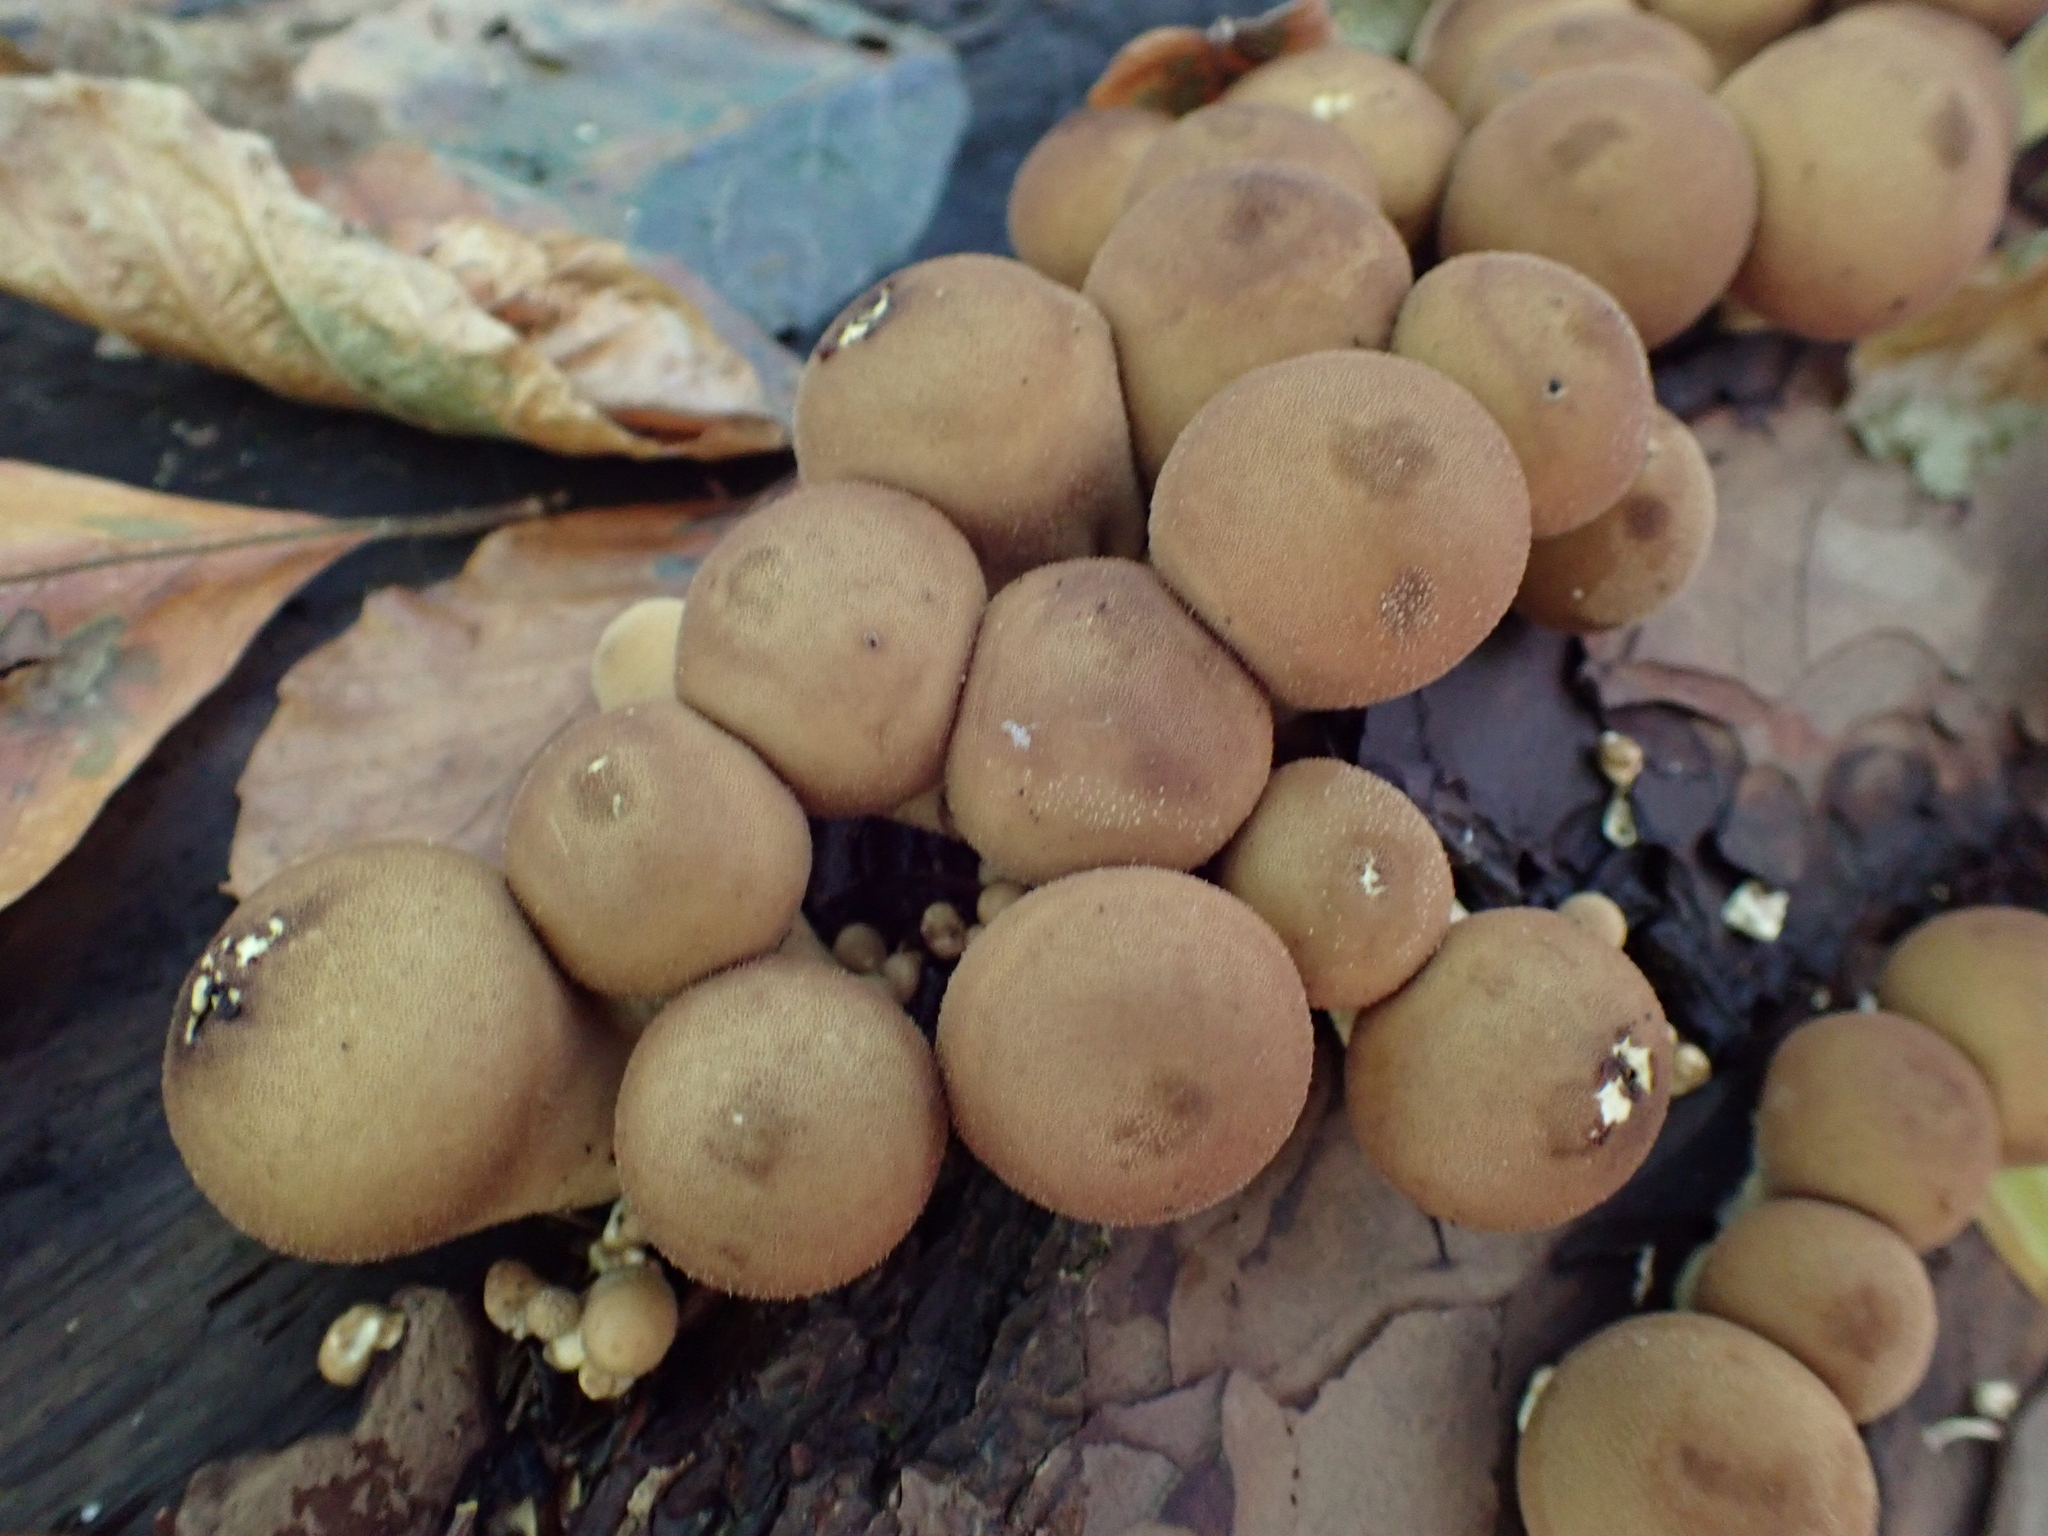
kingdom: Fungi
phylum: Basidiomycota
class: Agaricomycetes
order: Agaricales
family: Lycoperdaceae
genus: Apioperdon
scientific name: Apioperdon pyriforme
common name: Pear-shaped puffball
